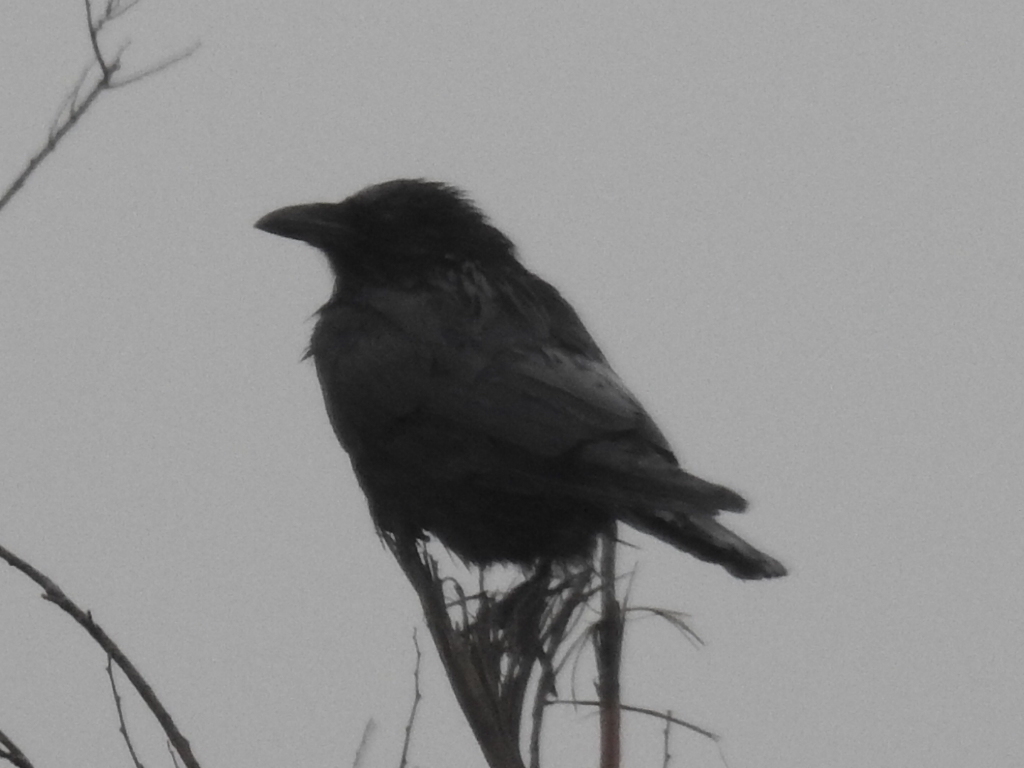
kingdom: Animalia
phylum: Chordata
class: Aves
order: Passeriformes
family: Corvidae
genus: Corvus
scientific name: Corvus brachyrhynchos
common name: American crow
